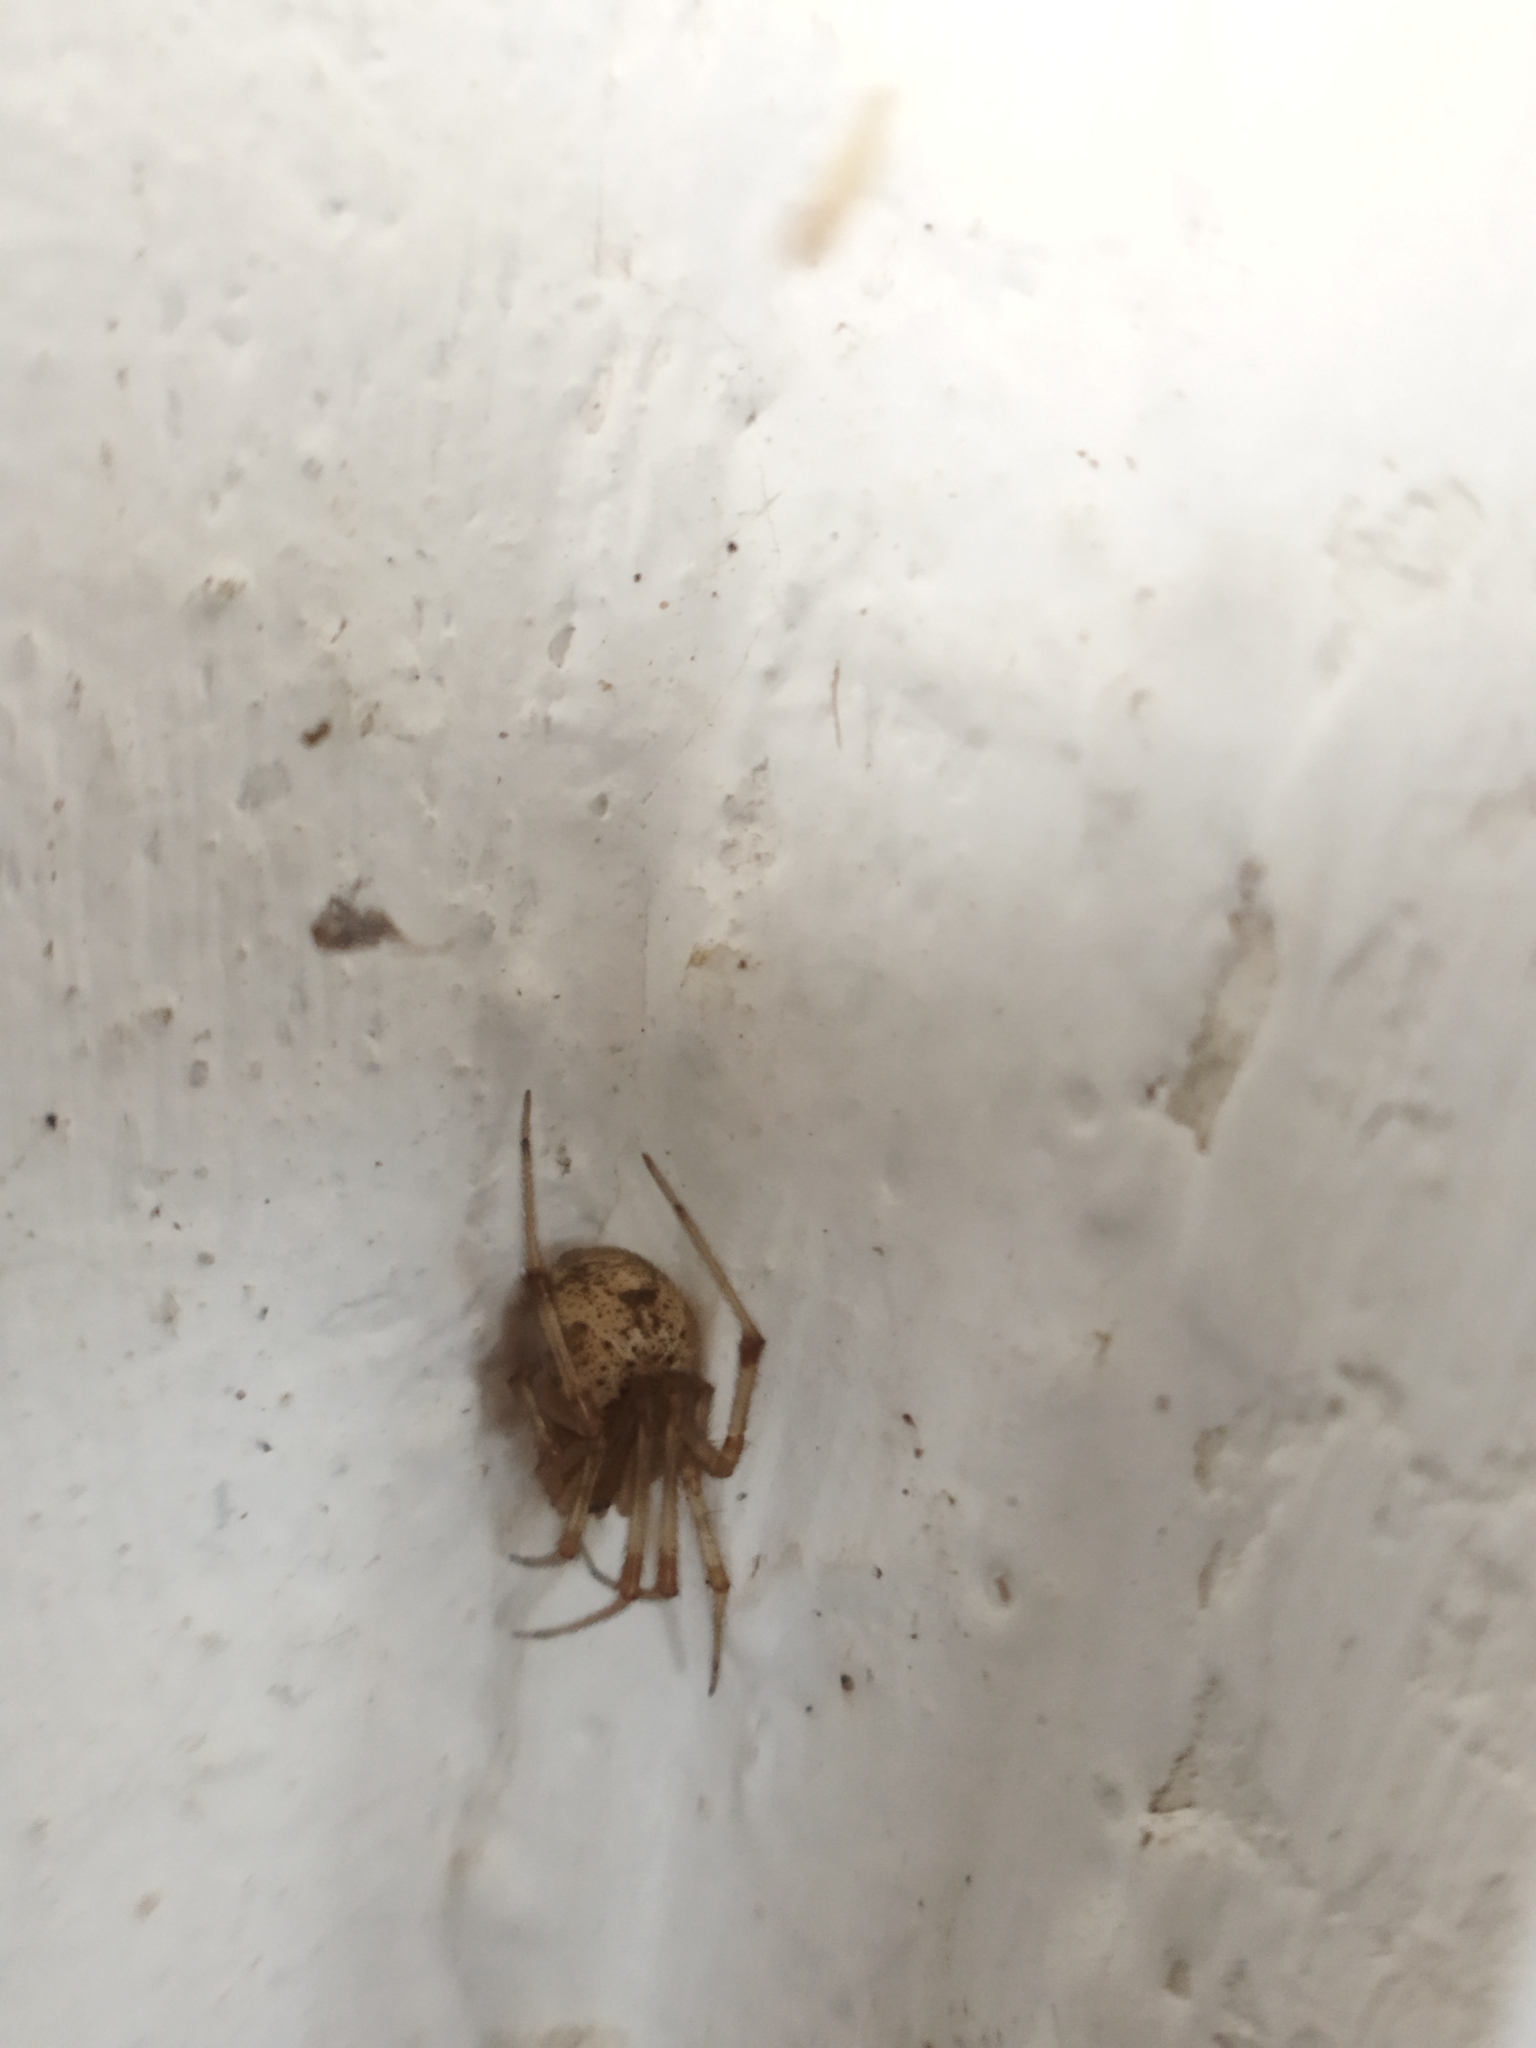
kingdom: Animalia
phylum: Arthropoda
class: Arachnida
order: Araneae
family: Theridiidae
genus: Parasteatoda
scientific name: Parasteatoda tepidariorum
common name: Common house spider
